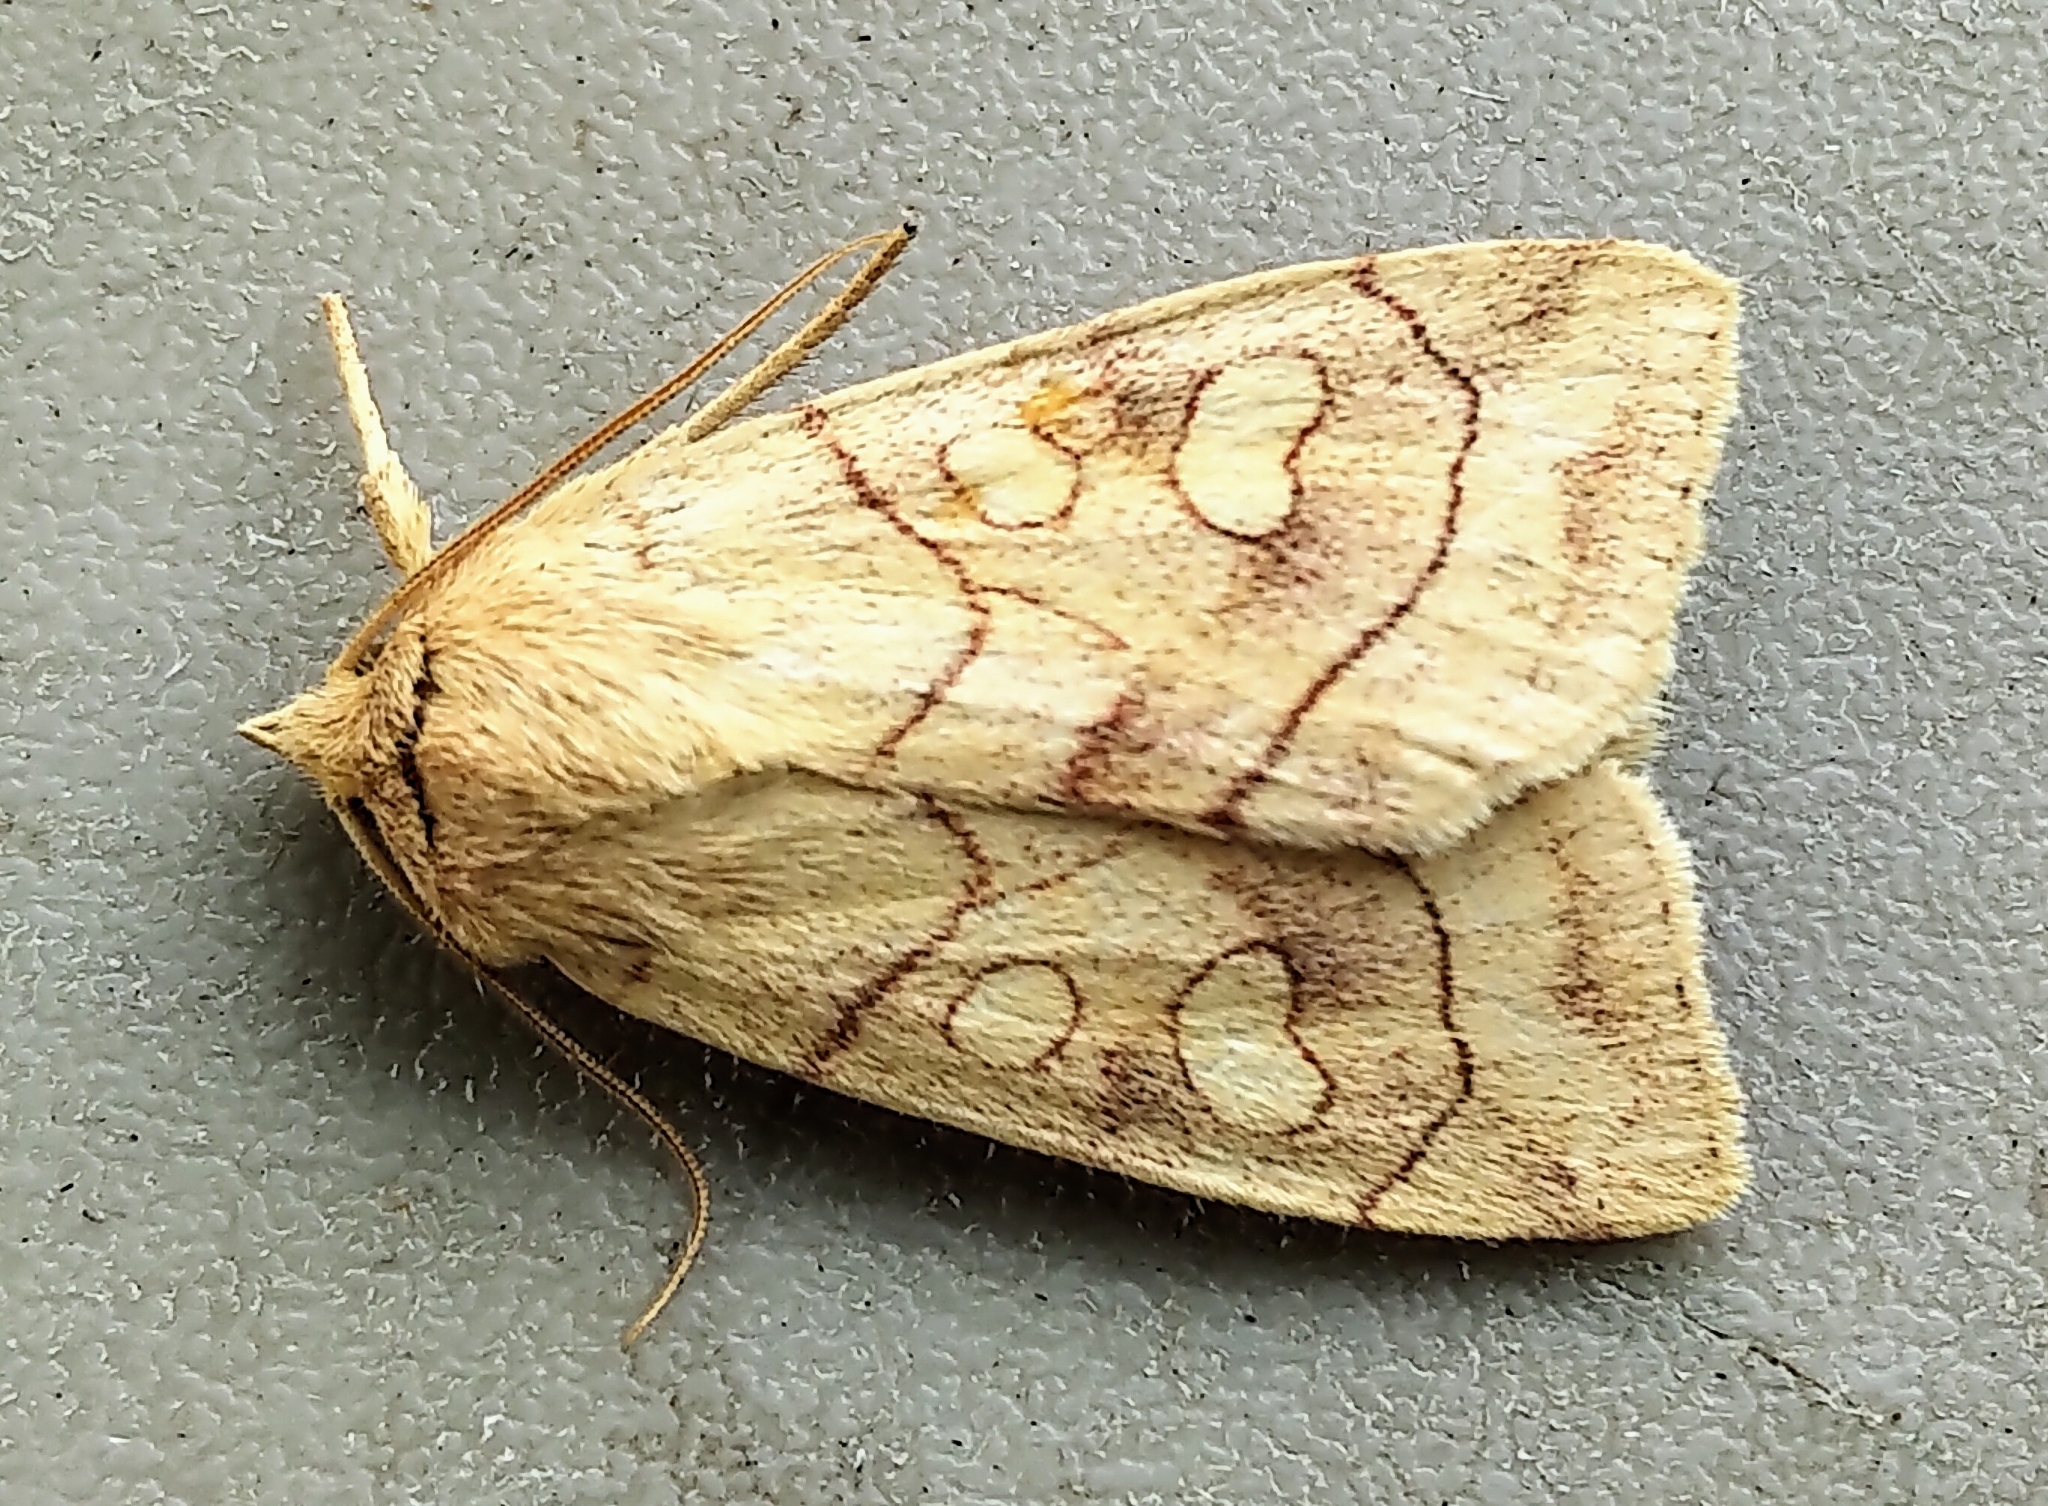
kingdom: Animalia
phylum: Arthropoda
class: Insecta
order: Lepidoptera
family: Noctuidae
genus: Enargia
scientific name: Enargia decolor
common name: Aspen twoleaf tier moth
